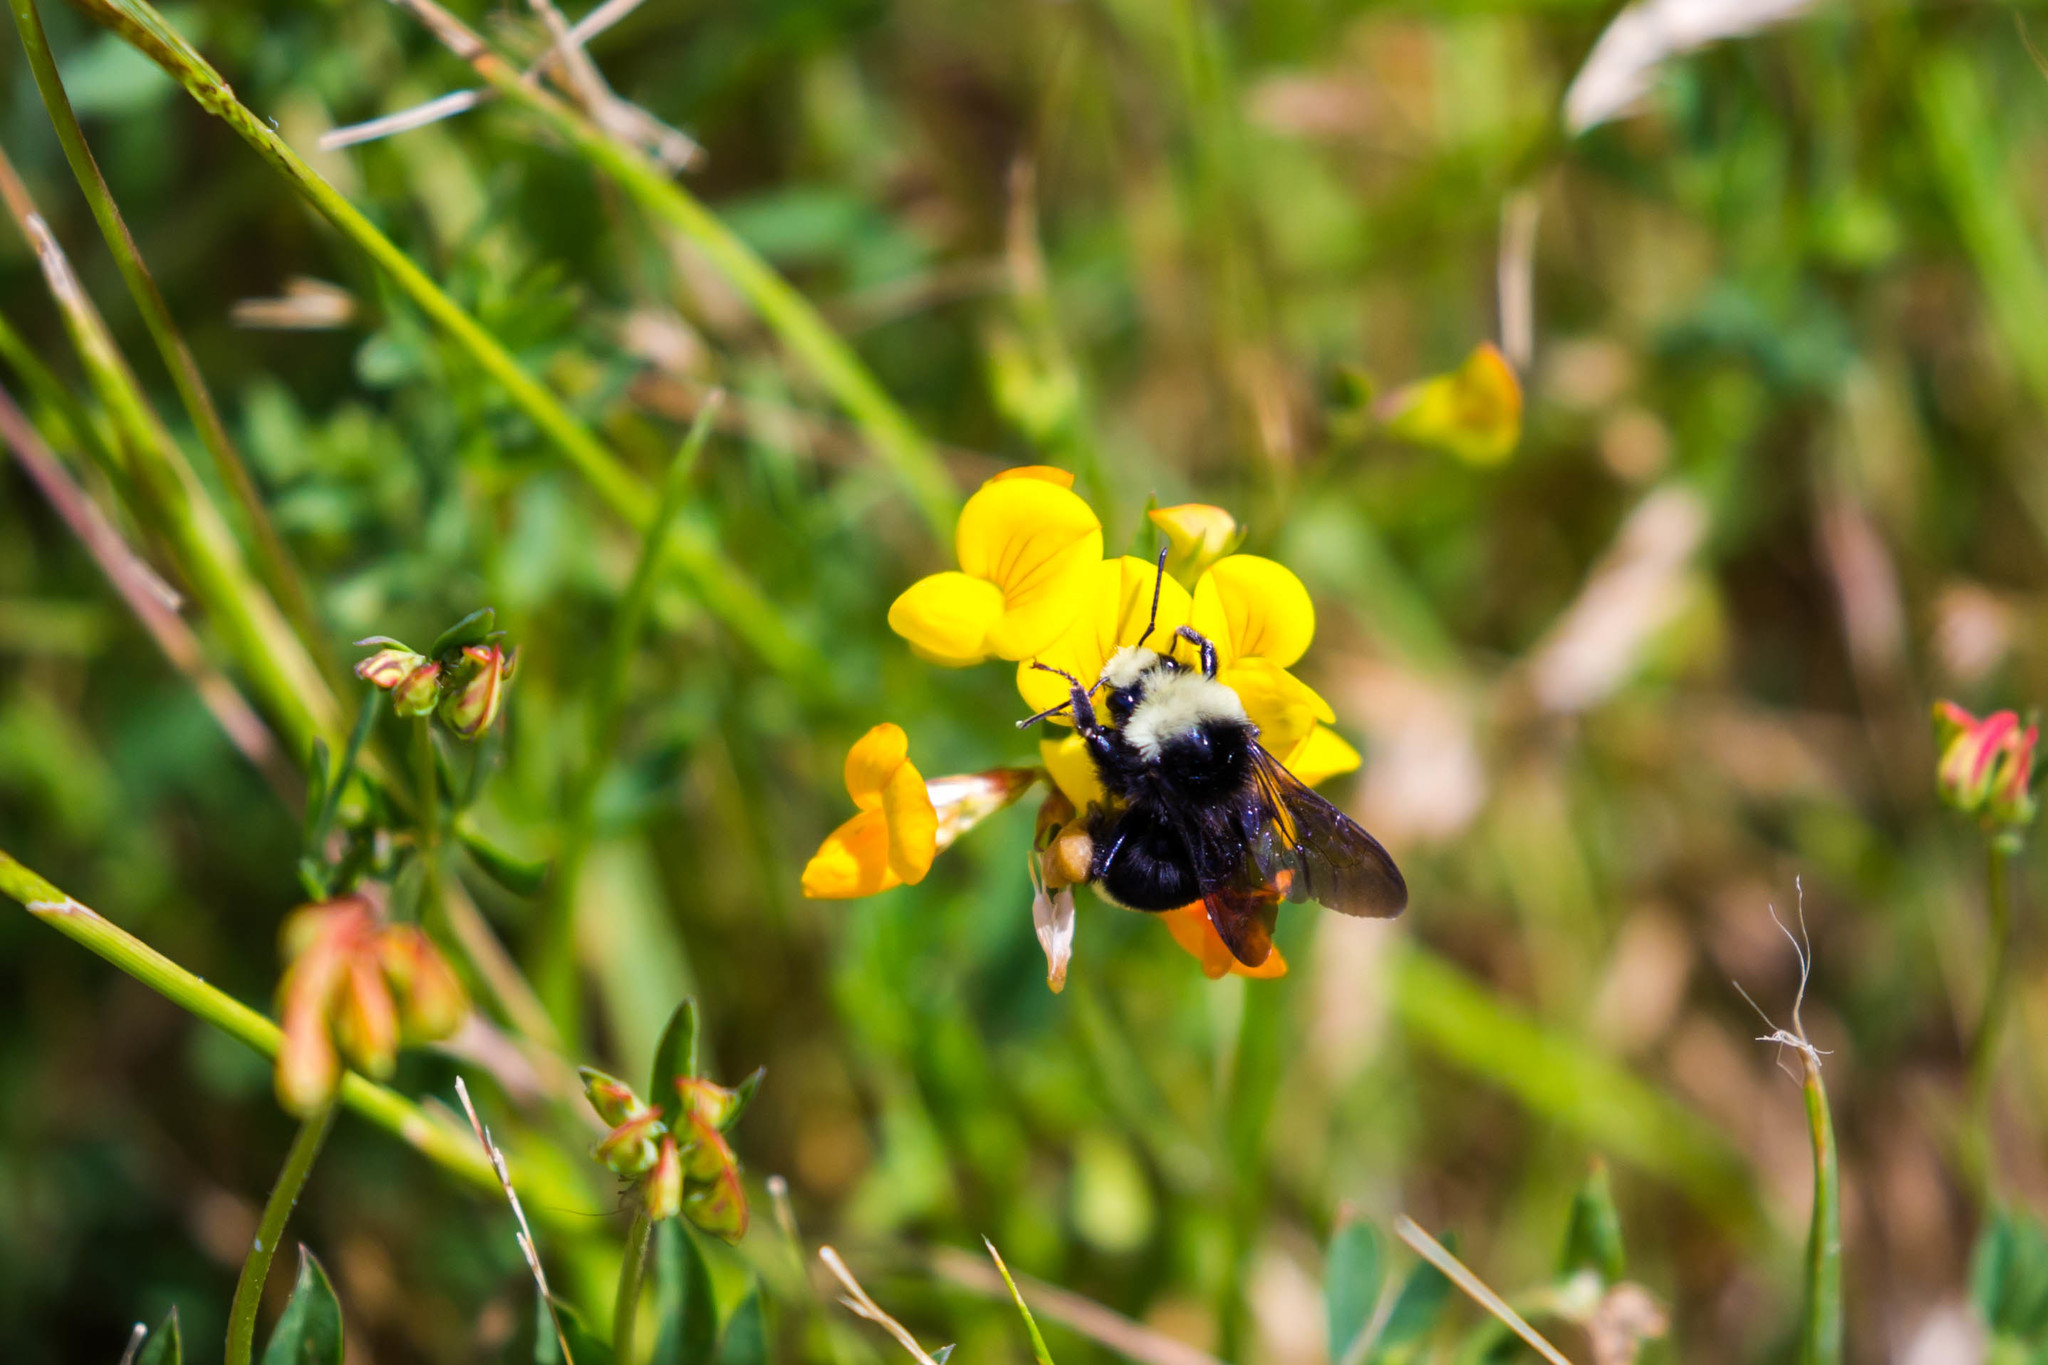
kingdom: Animalia
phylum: Arthropoda
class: Insecta
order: Hymenoptera
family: Apidae
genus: Bombus
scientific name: Bombus vosnesenskii
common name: Vosnesensky bumble bee
